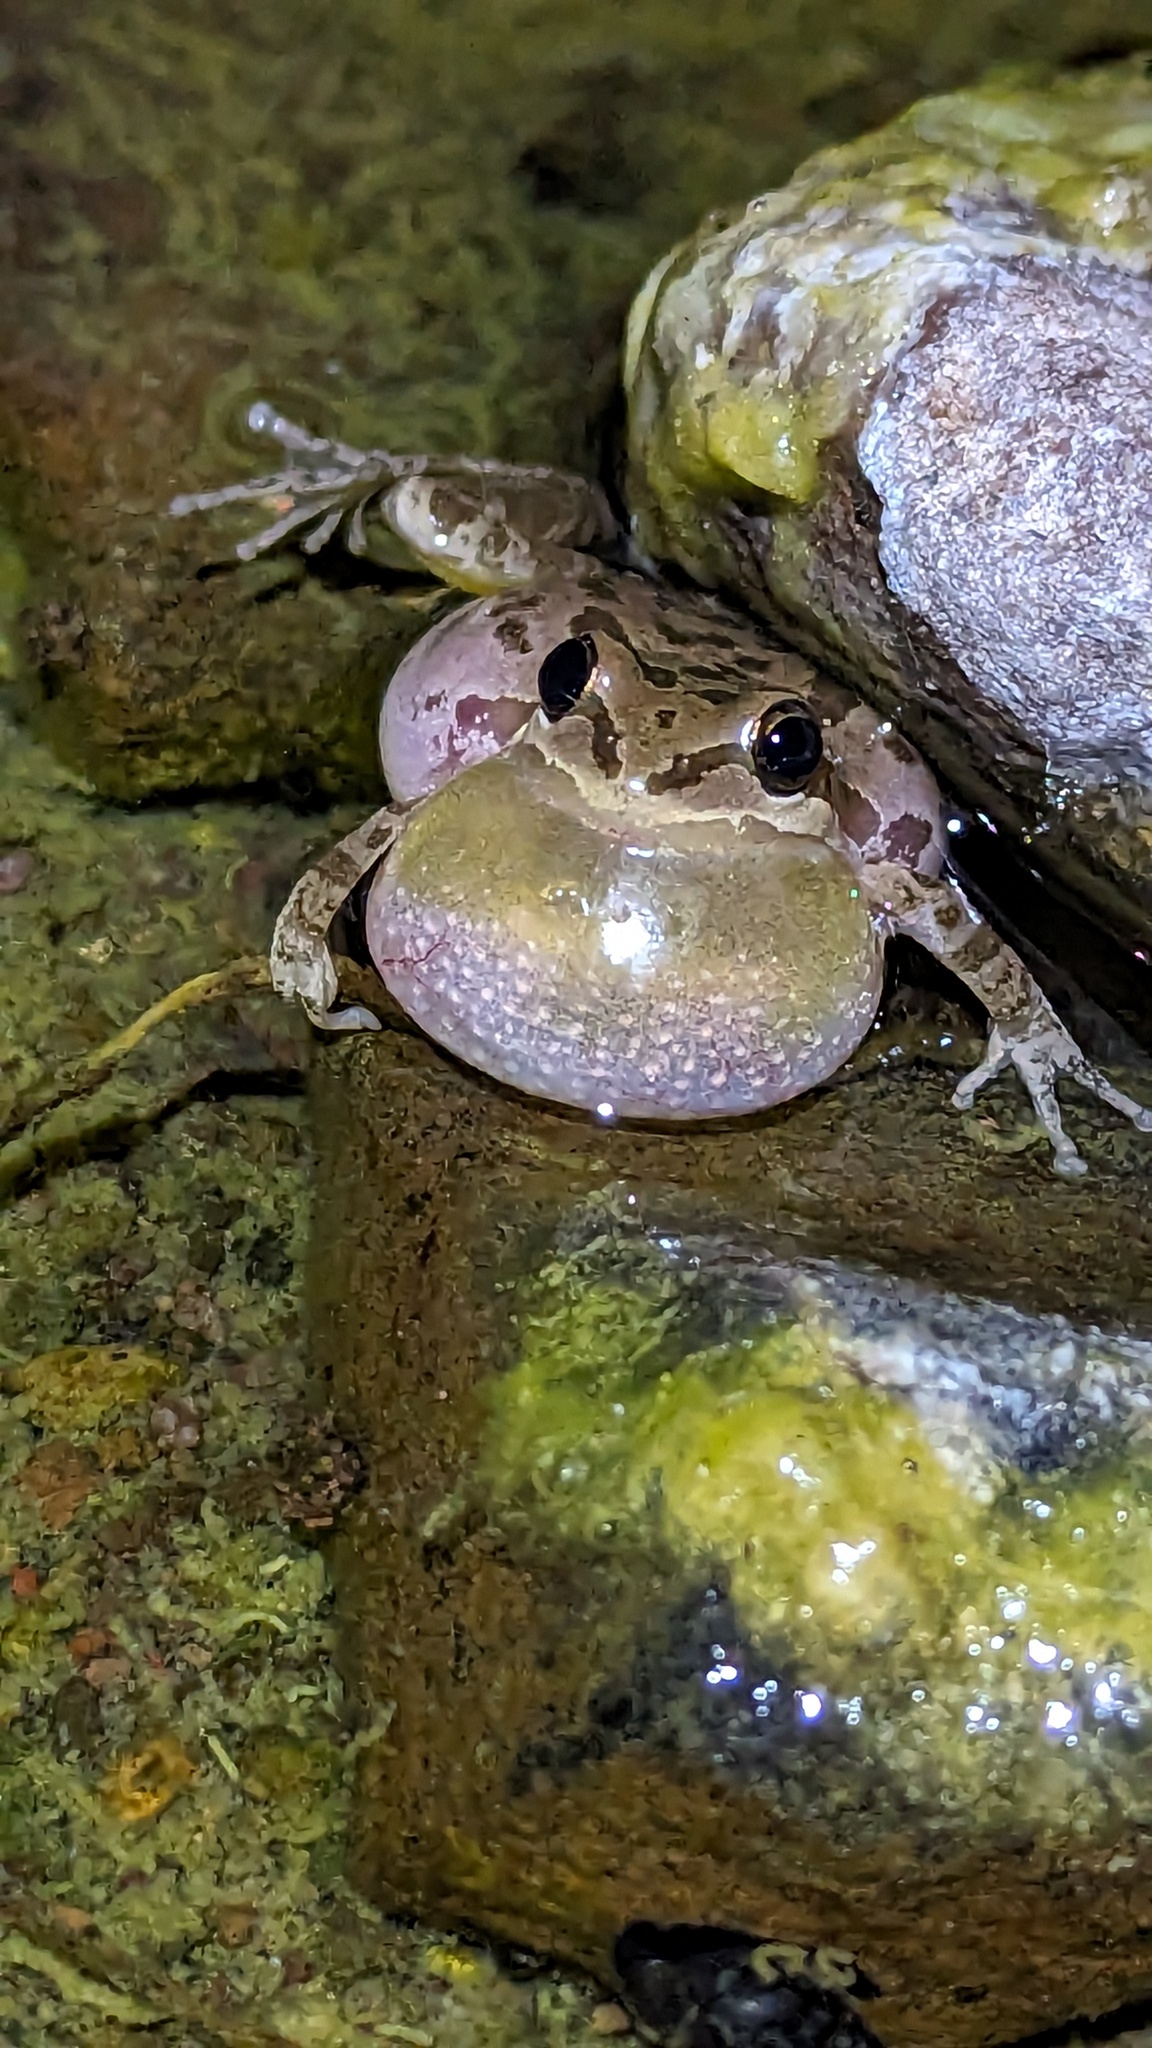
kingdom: Animalia
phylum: Chordata
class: Amphibia
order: Anura
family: Hylidae
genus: Pseudacris
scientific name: Pseudacris regilla
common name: Pacific chorus frog
